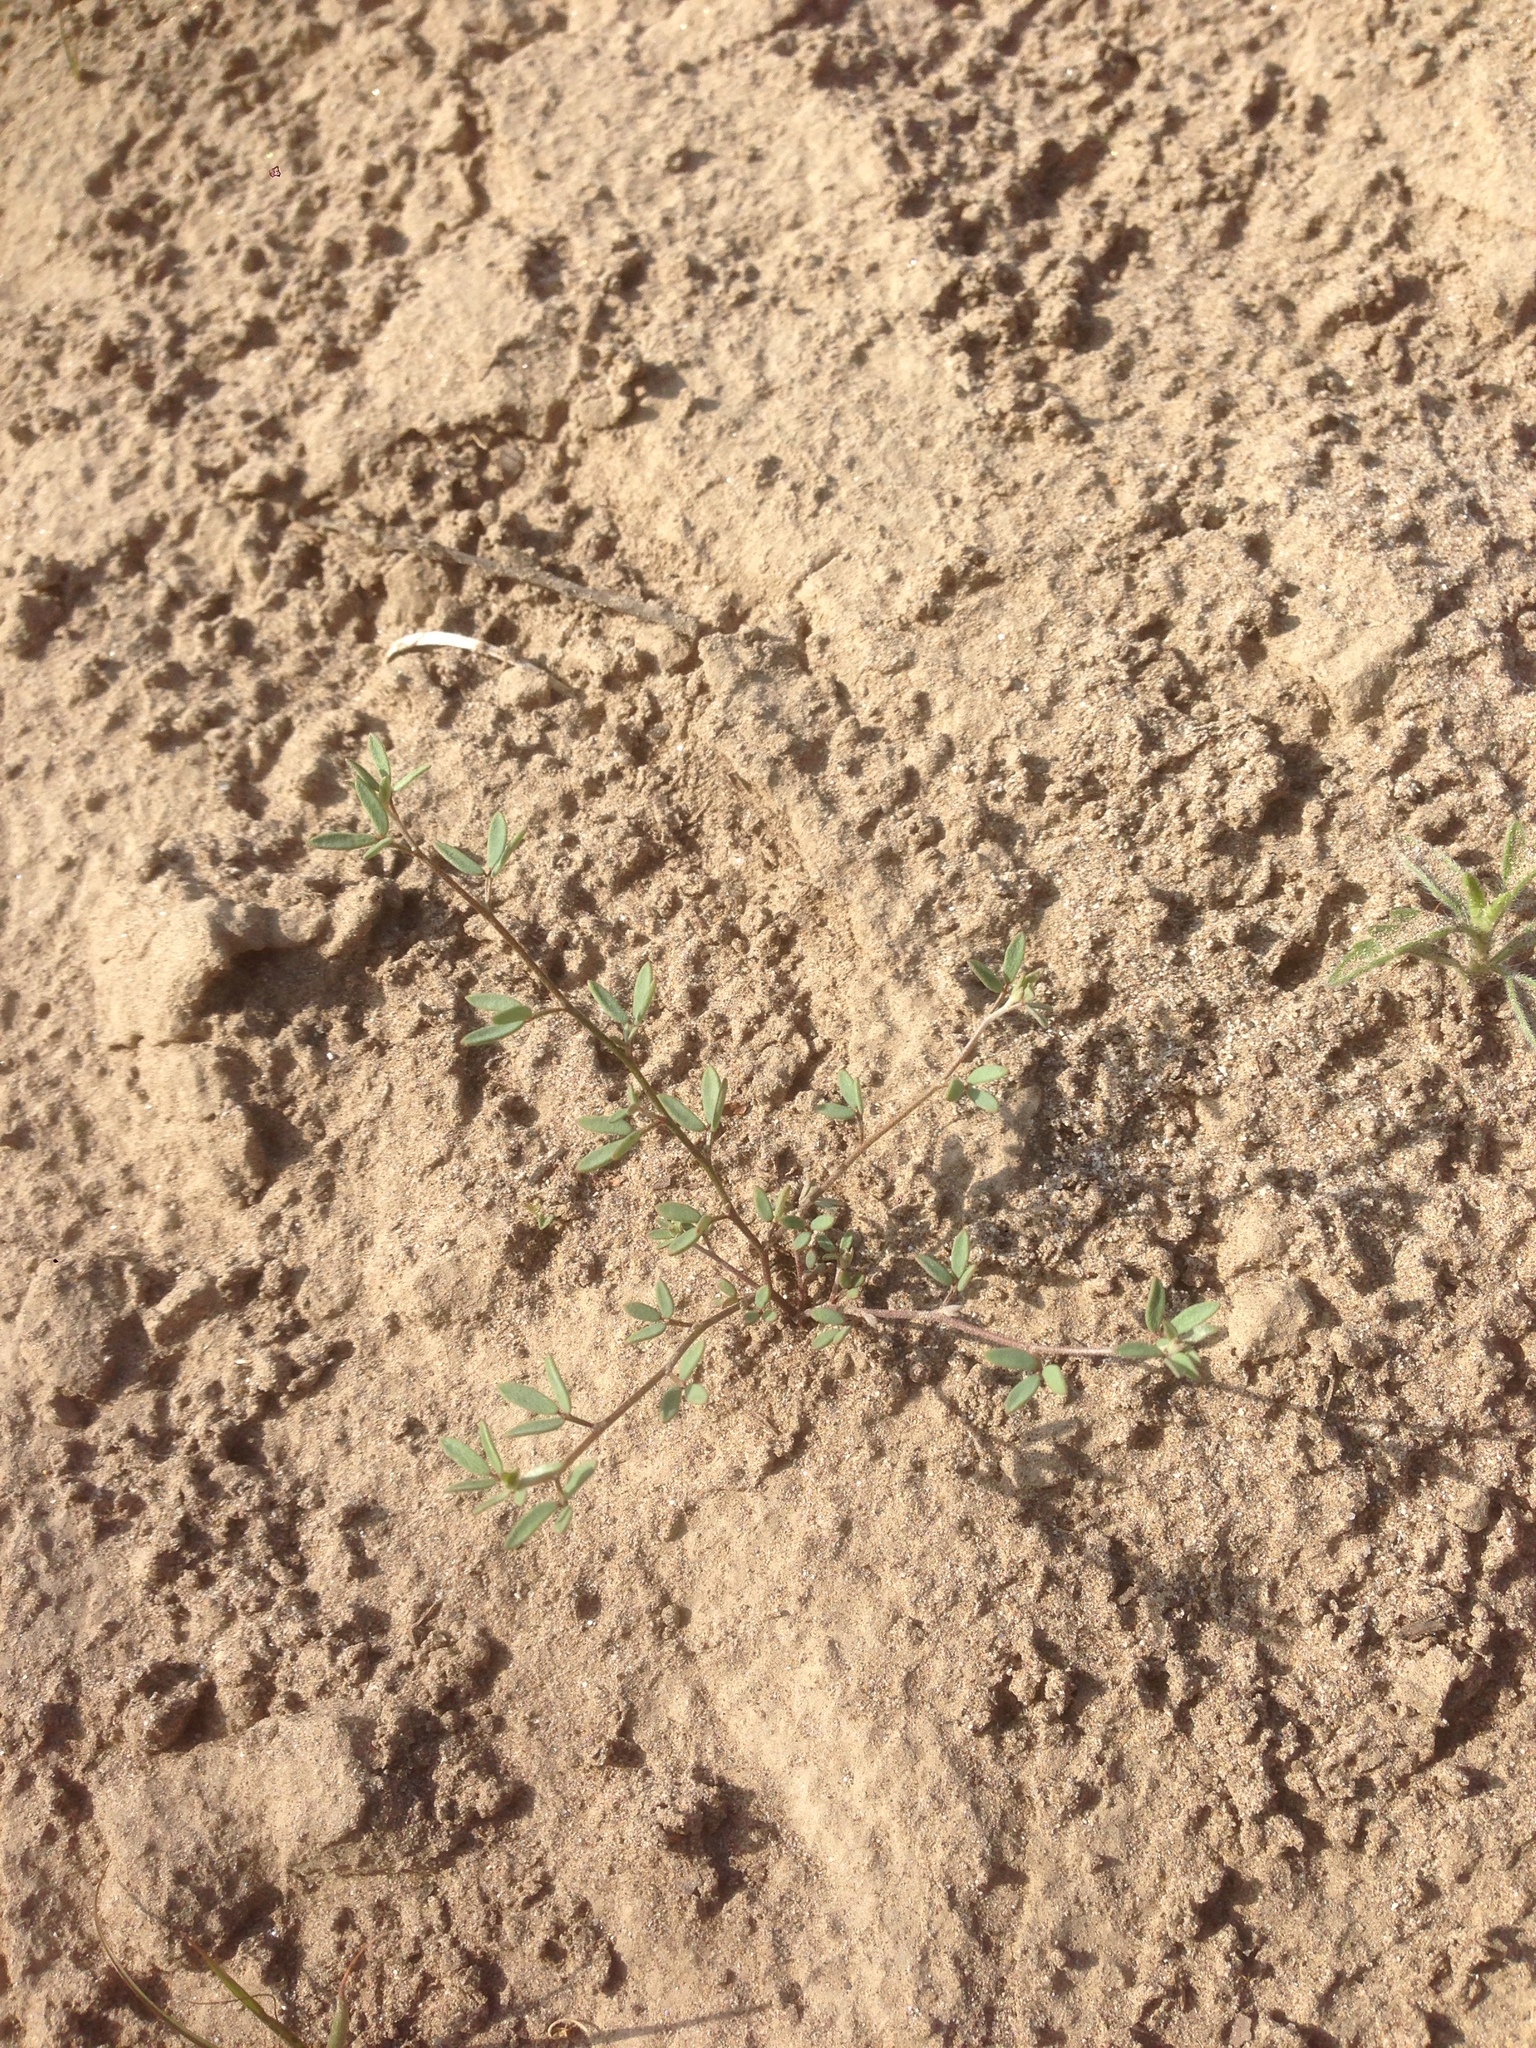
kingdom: Plantae
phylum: Tracheophyta
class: Magnoliopsida
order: Fabales
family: Fabaceae
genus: Acmispon
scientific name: Acmispon glaber
